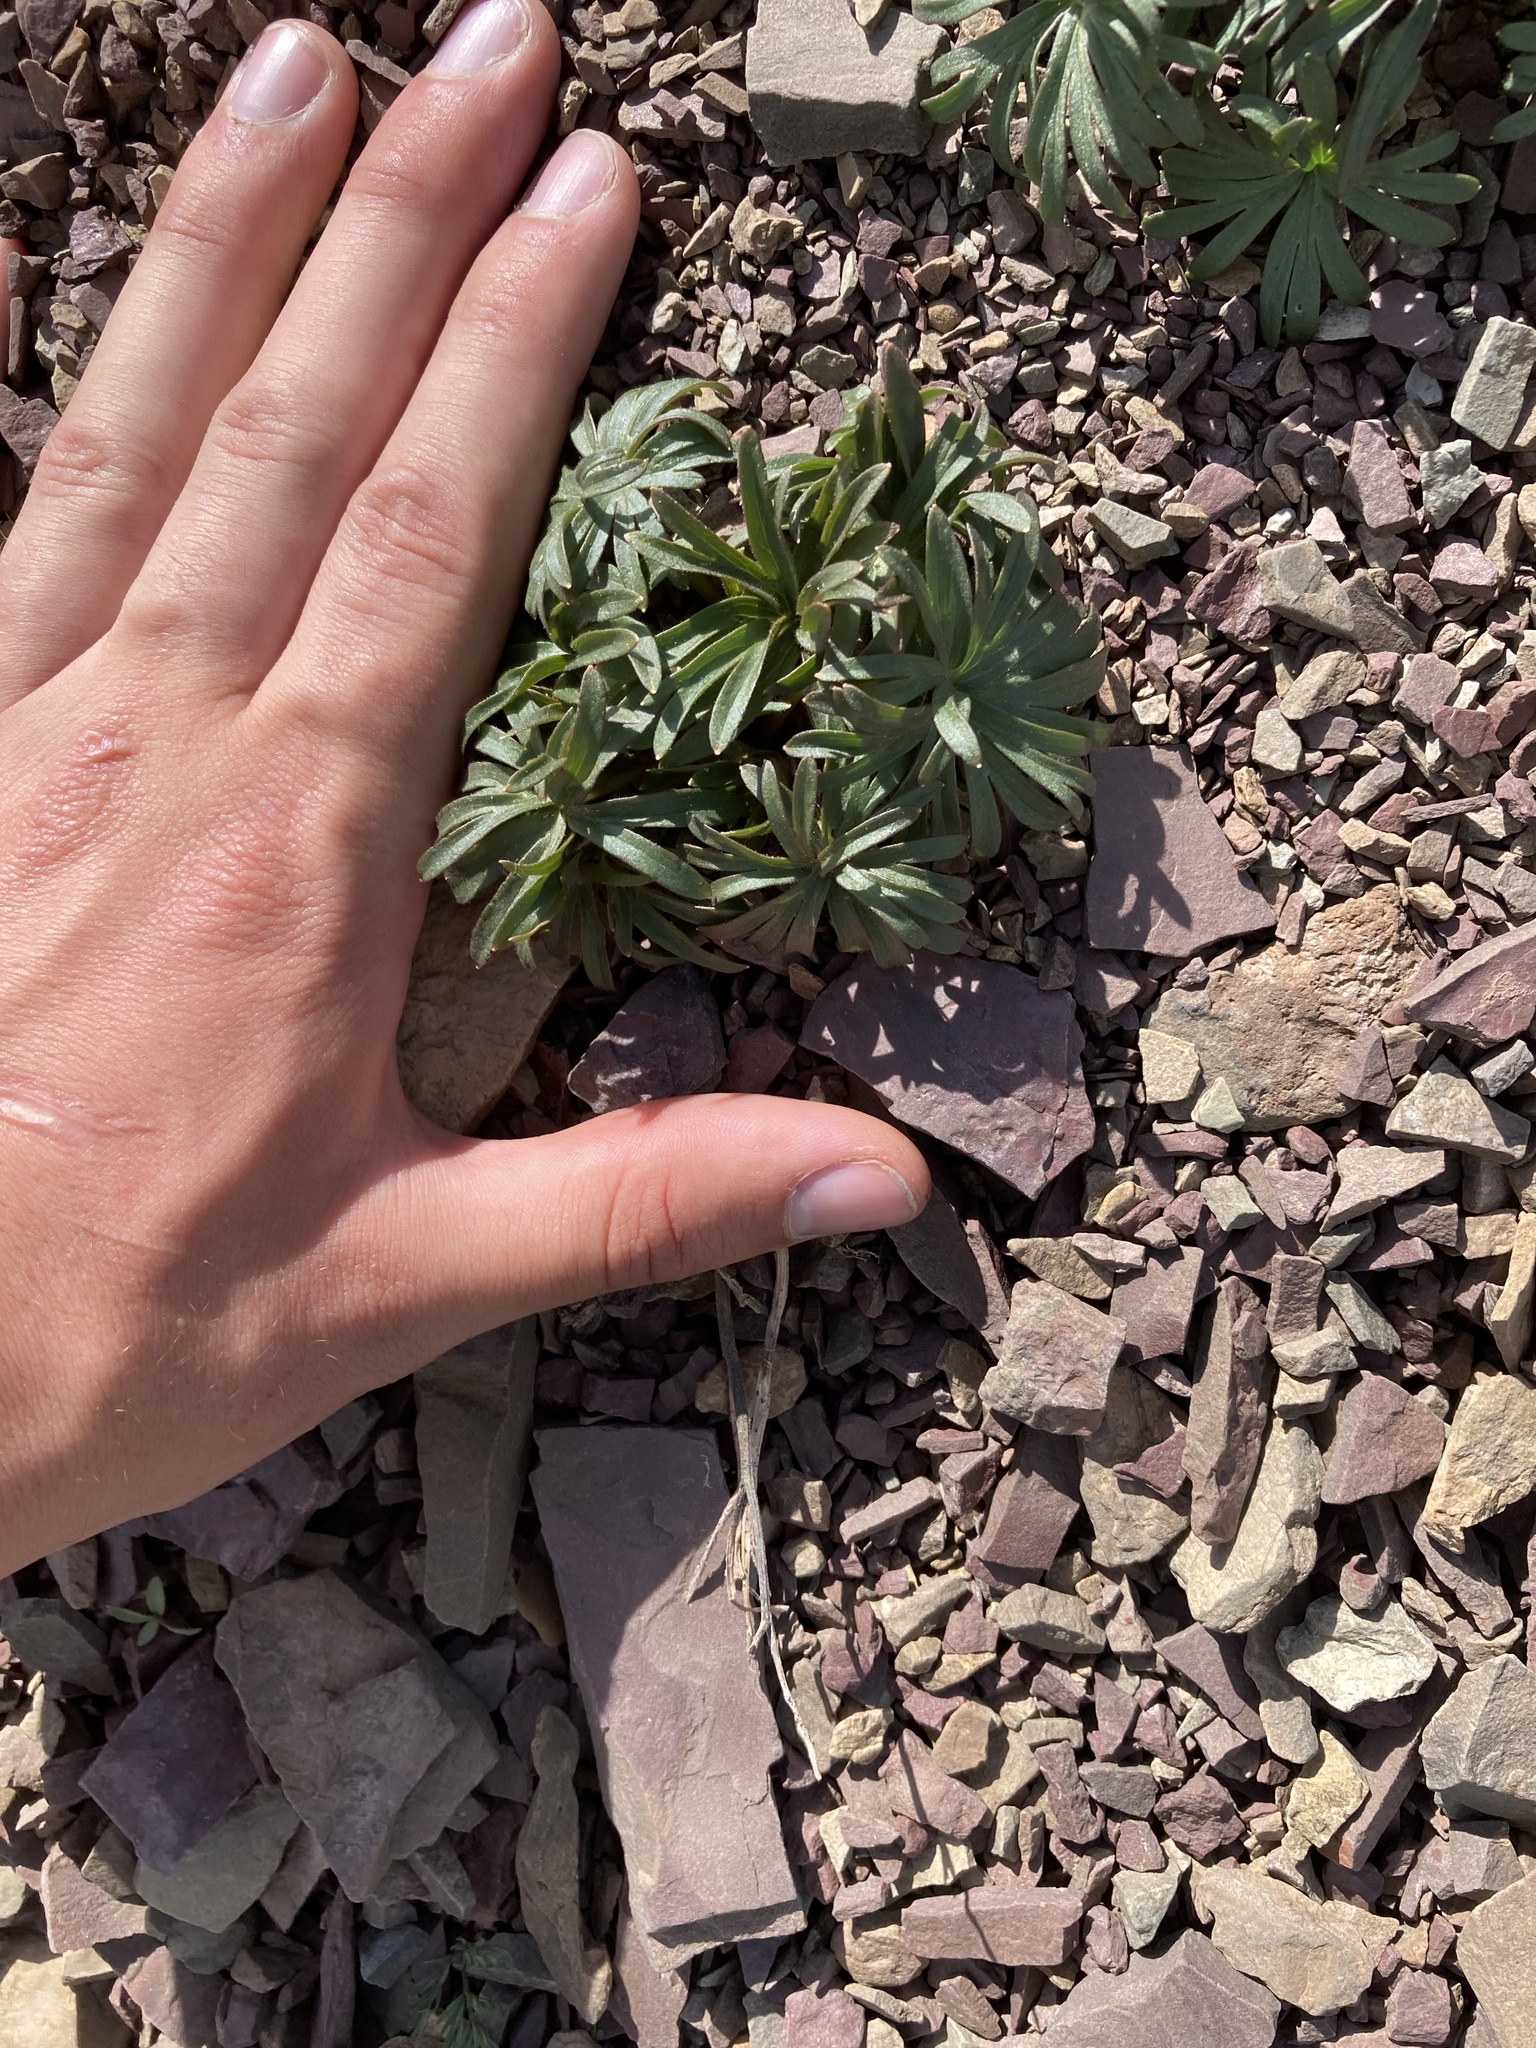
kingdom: Plantae
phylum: Tracheophyta
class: Magnoliopsida
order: Ranunculales
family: Ranunculaceae
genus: Delphinium
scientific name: Delphinium bicolor
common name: Low larkspur
